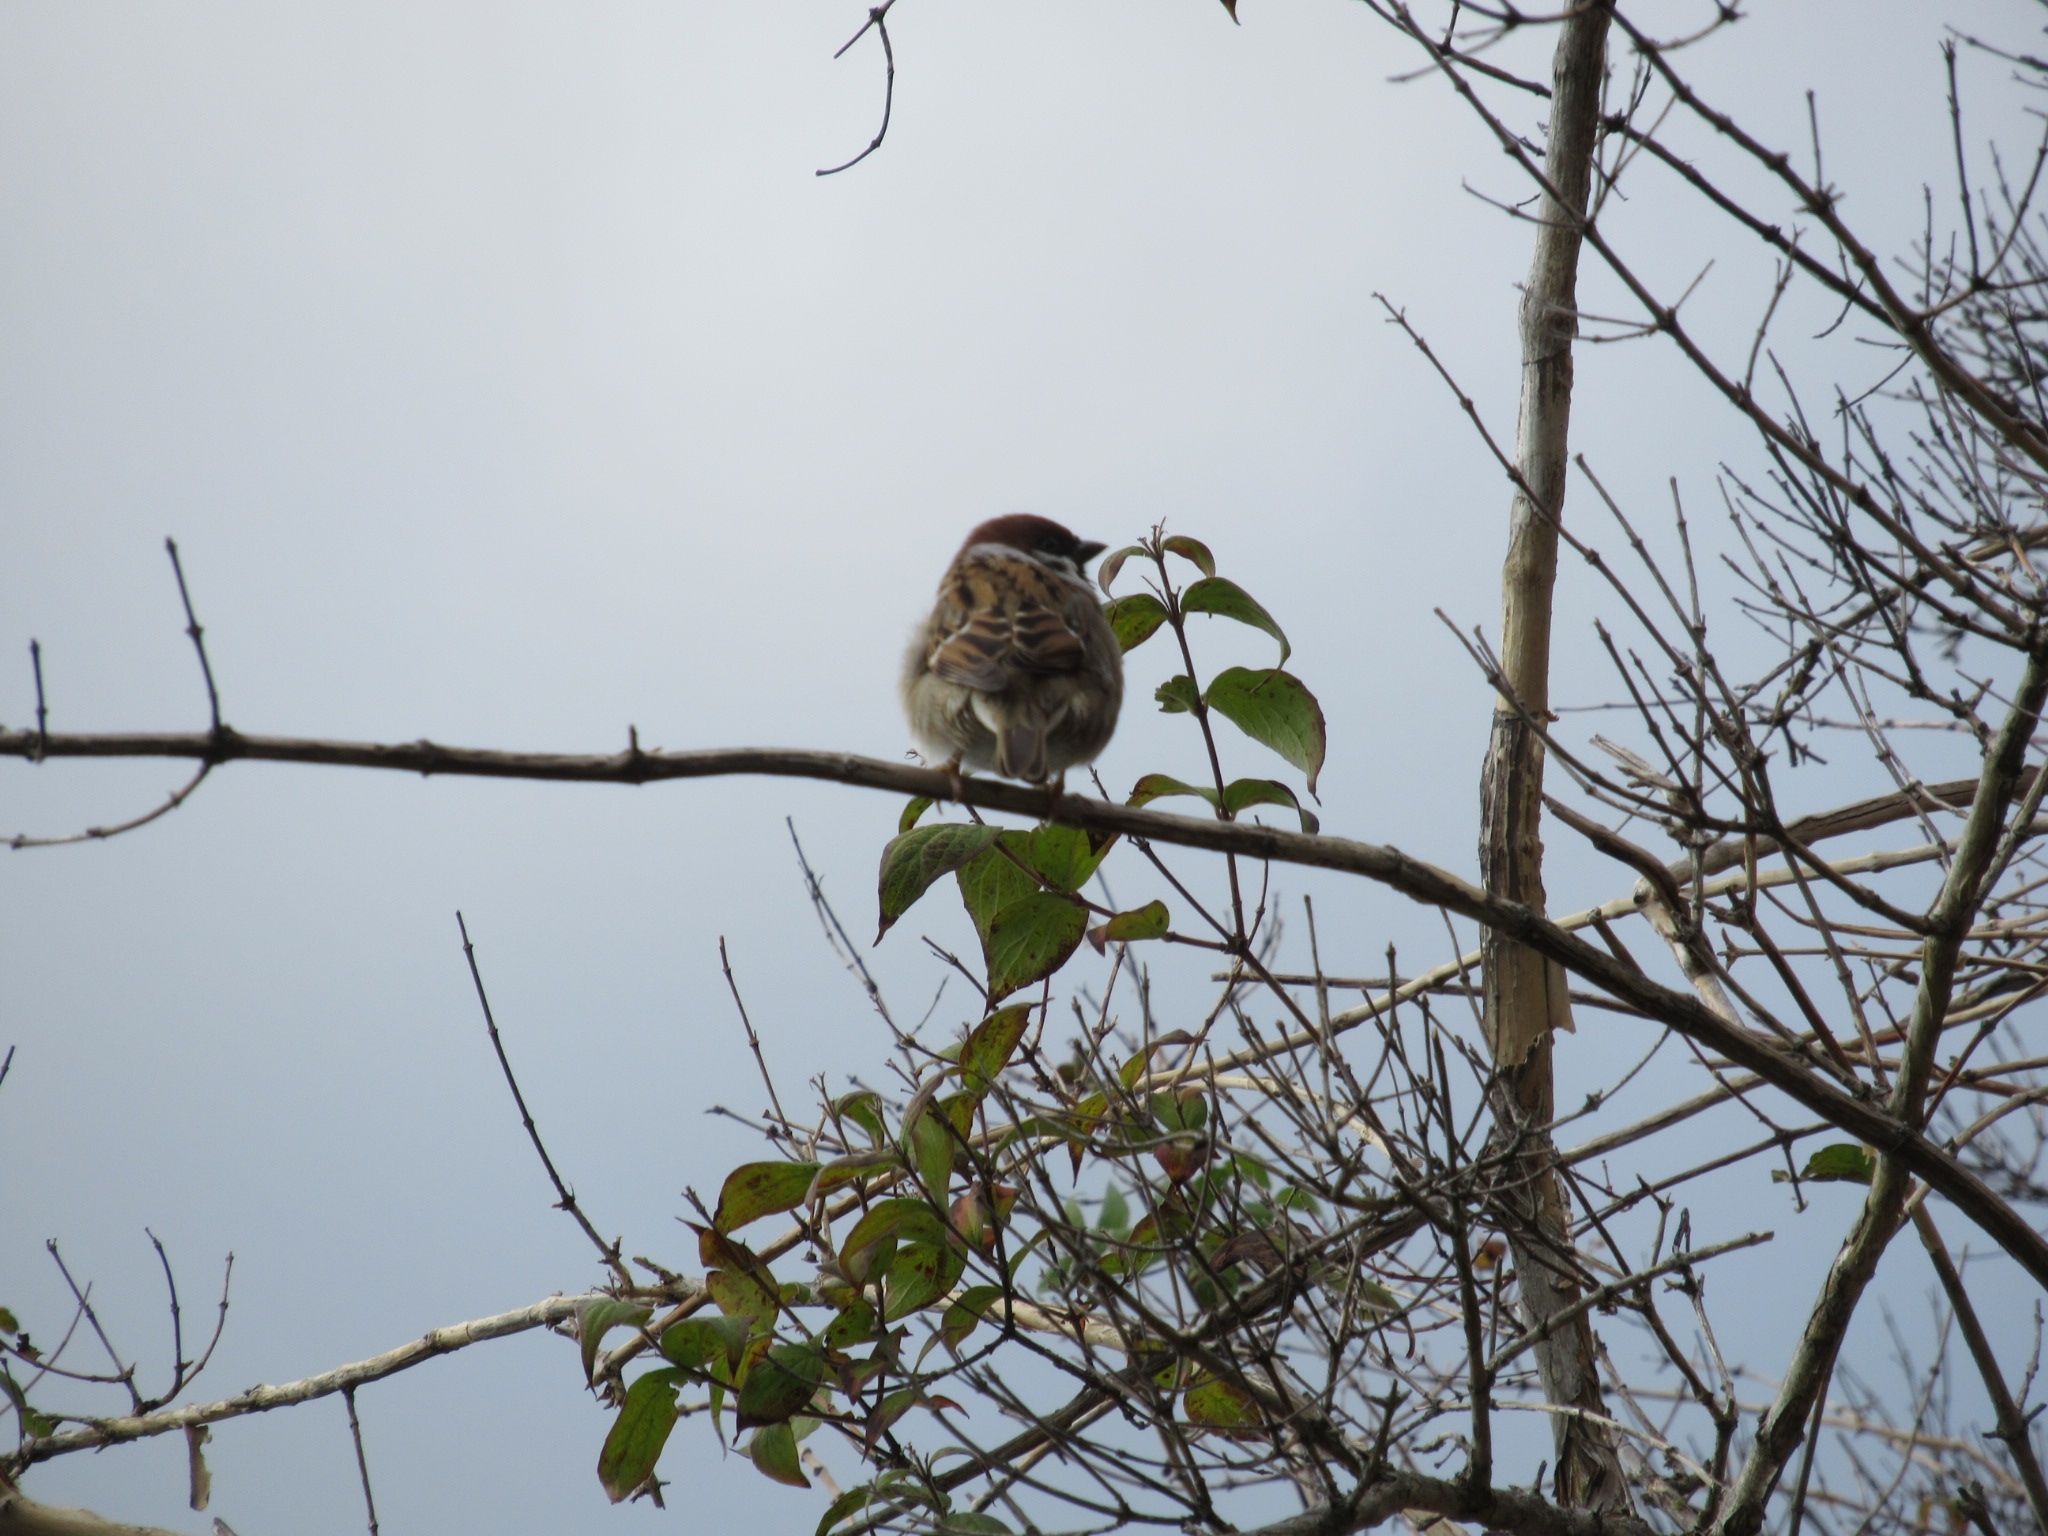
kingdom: Animalia
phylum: Chordata
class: Aves
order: Passeriformes
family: Passeridae
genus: Passer
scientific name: Passer montanus
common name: Eurasian tree sparrow
